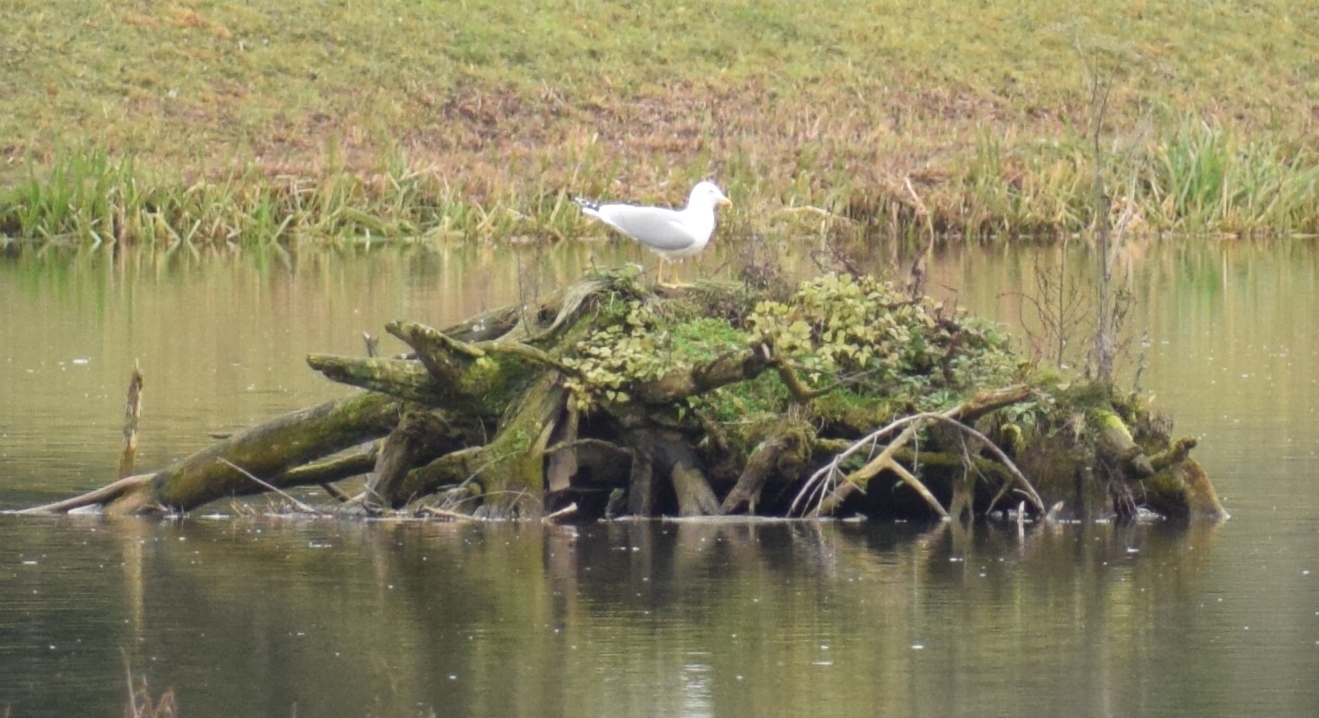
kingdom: Animalia
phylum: Chordata
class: Aves
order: Charadriiformes
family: Laridae
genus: Larus
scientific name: Larus michahellis
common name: Yellow-legged gull
